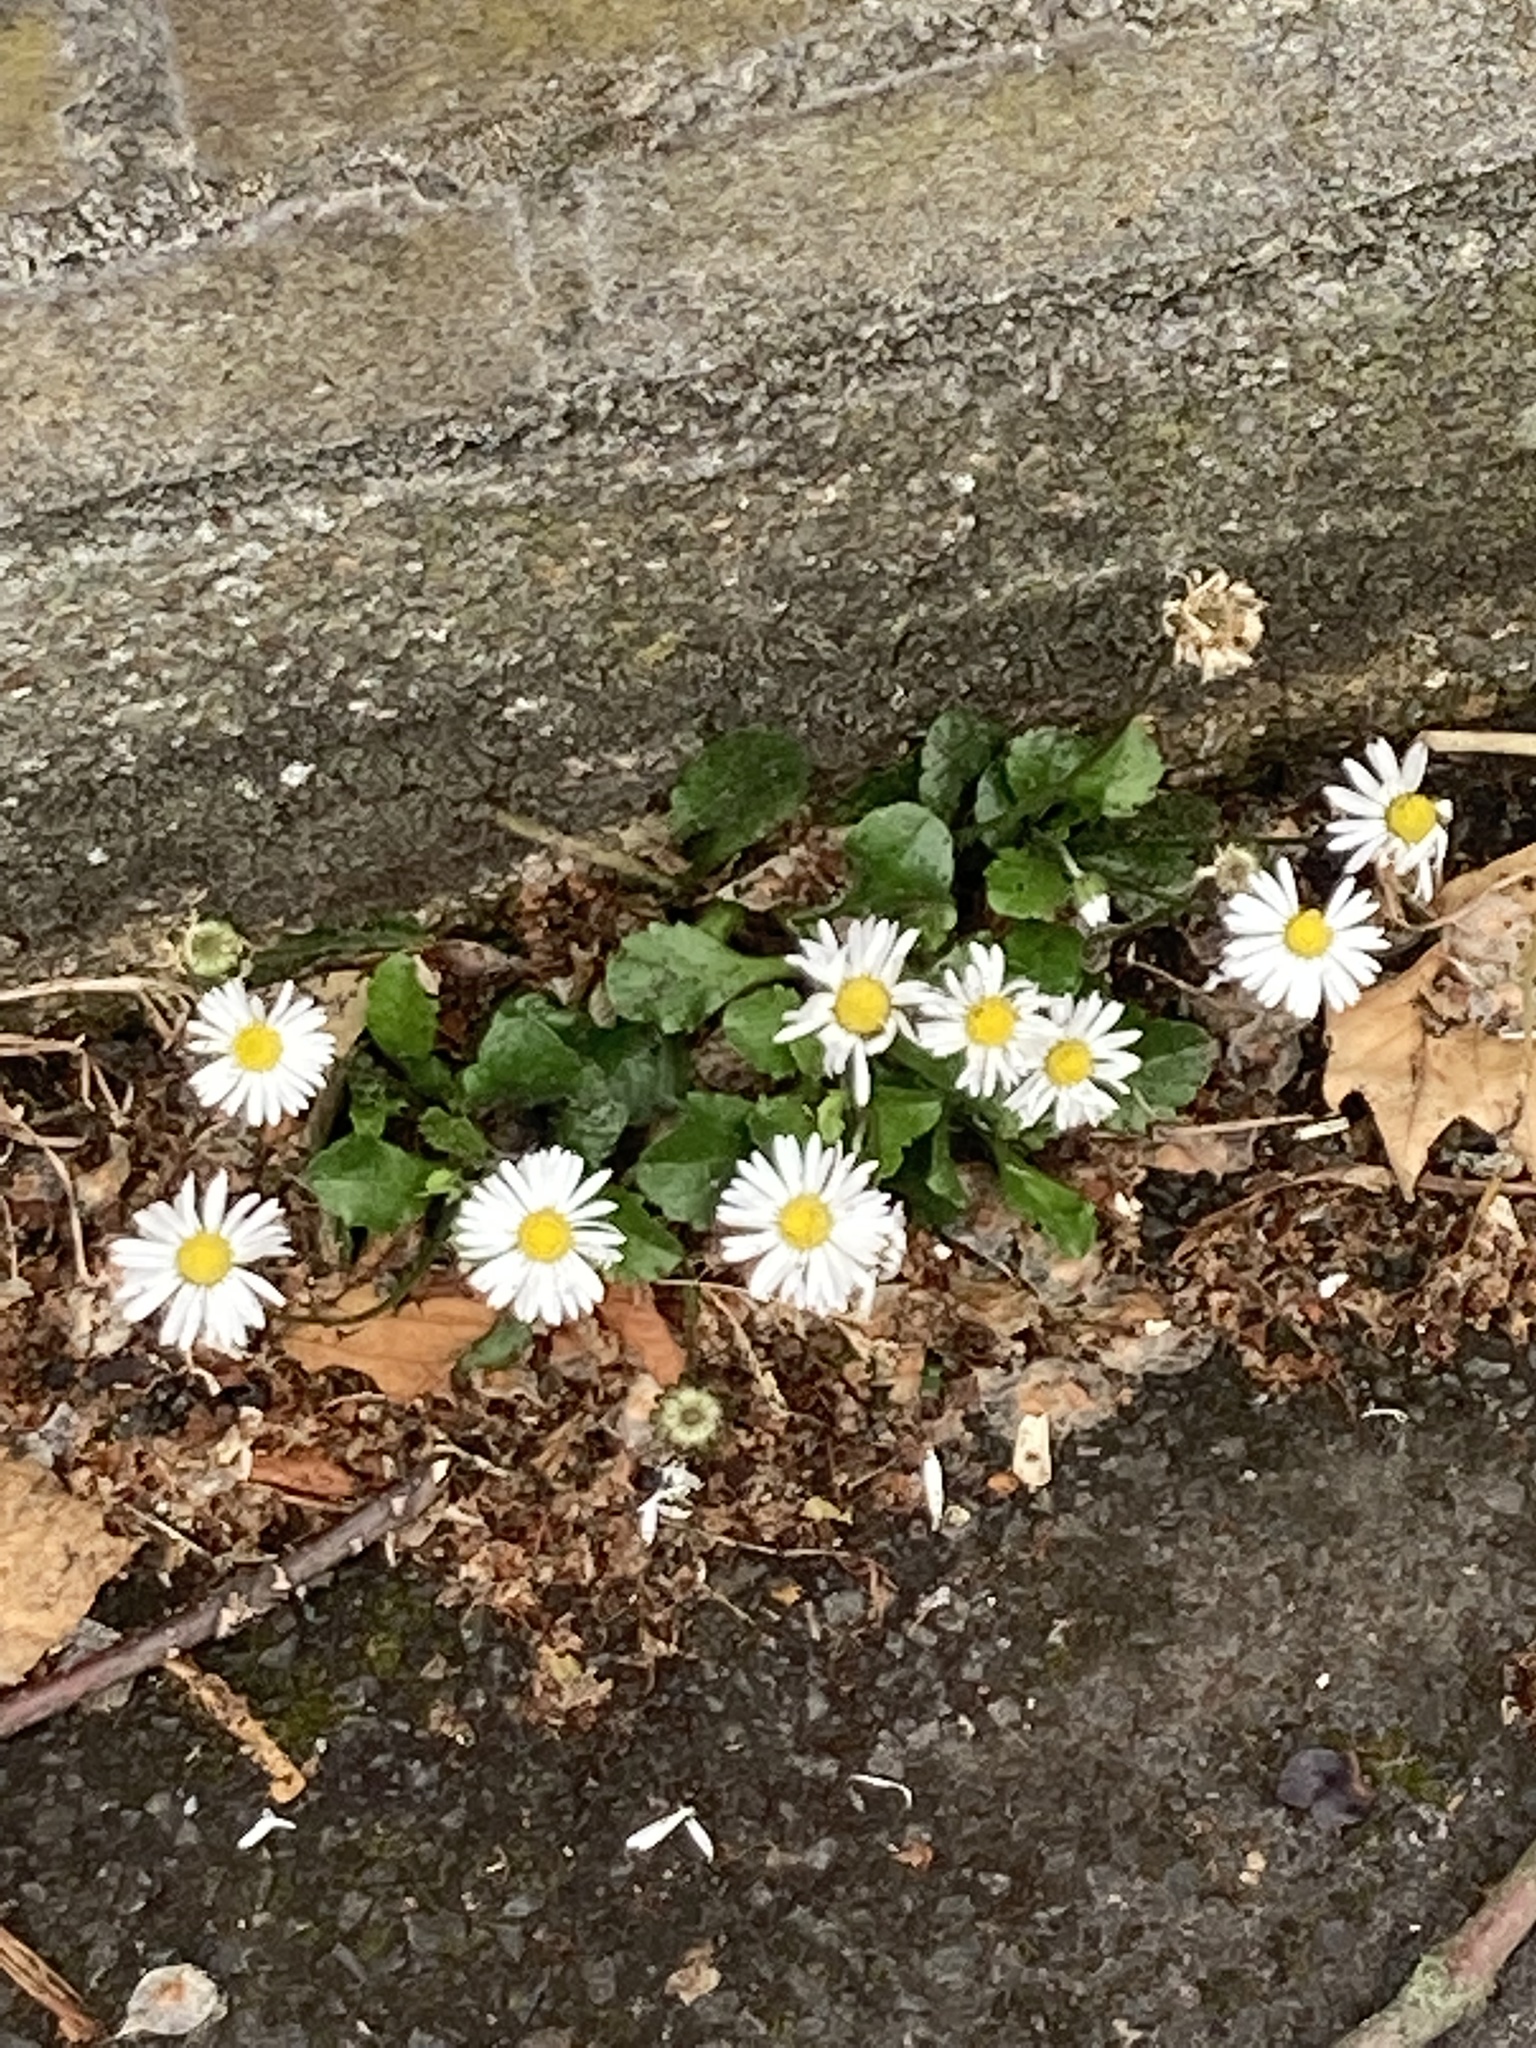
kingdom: Plantae
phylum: Tracheophyta
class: Magnoliopsida
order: Asterales
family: Asteraceae
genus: Bellis
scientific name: Bellis perennis
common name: Lawndaisy
